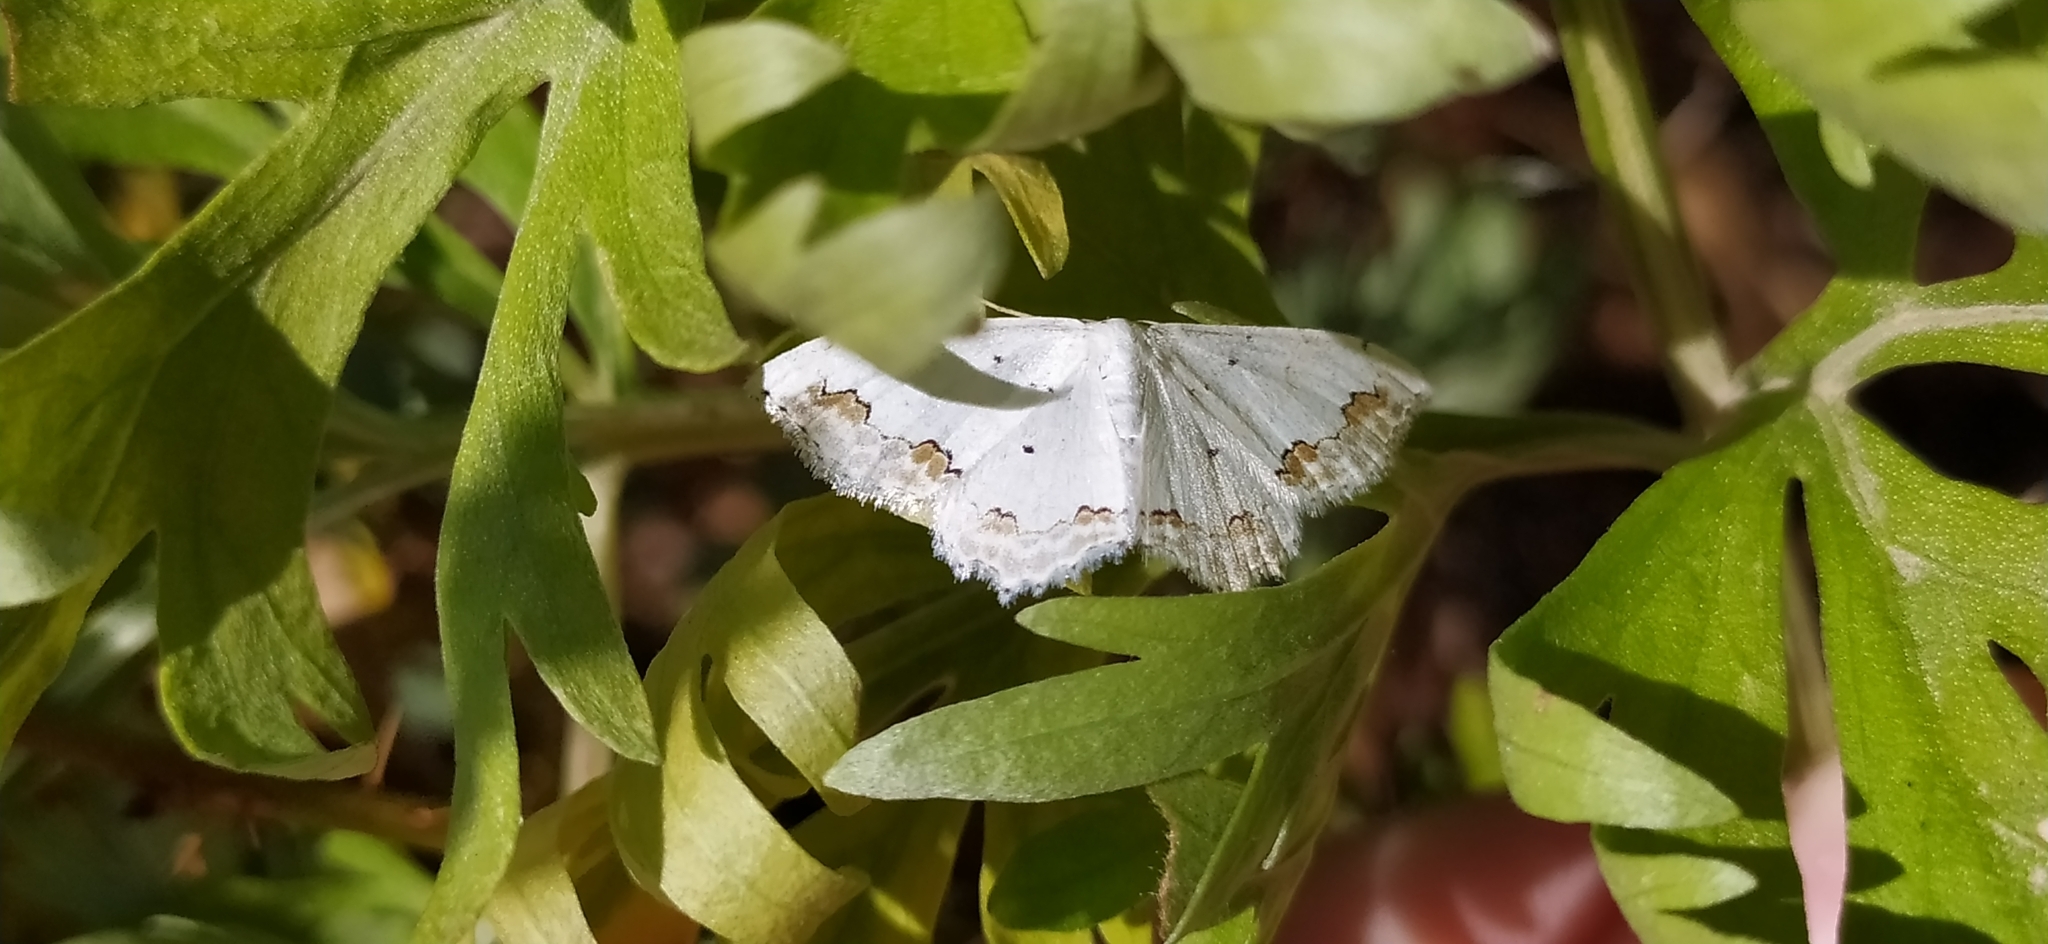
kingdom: Animalia
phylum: Arthropoda
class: Insecta
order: Lepidoptera
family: Geometridae
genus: Scopula
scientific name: Scopula ornata
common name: Lace border
